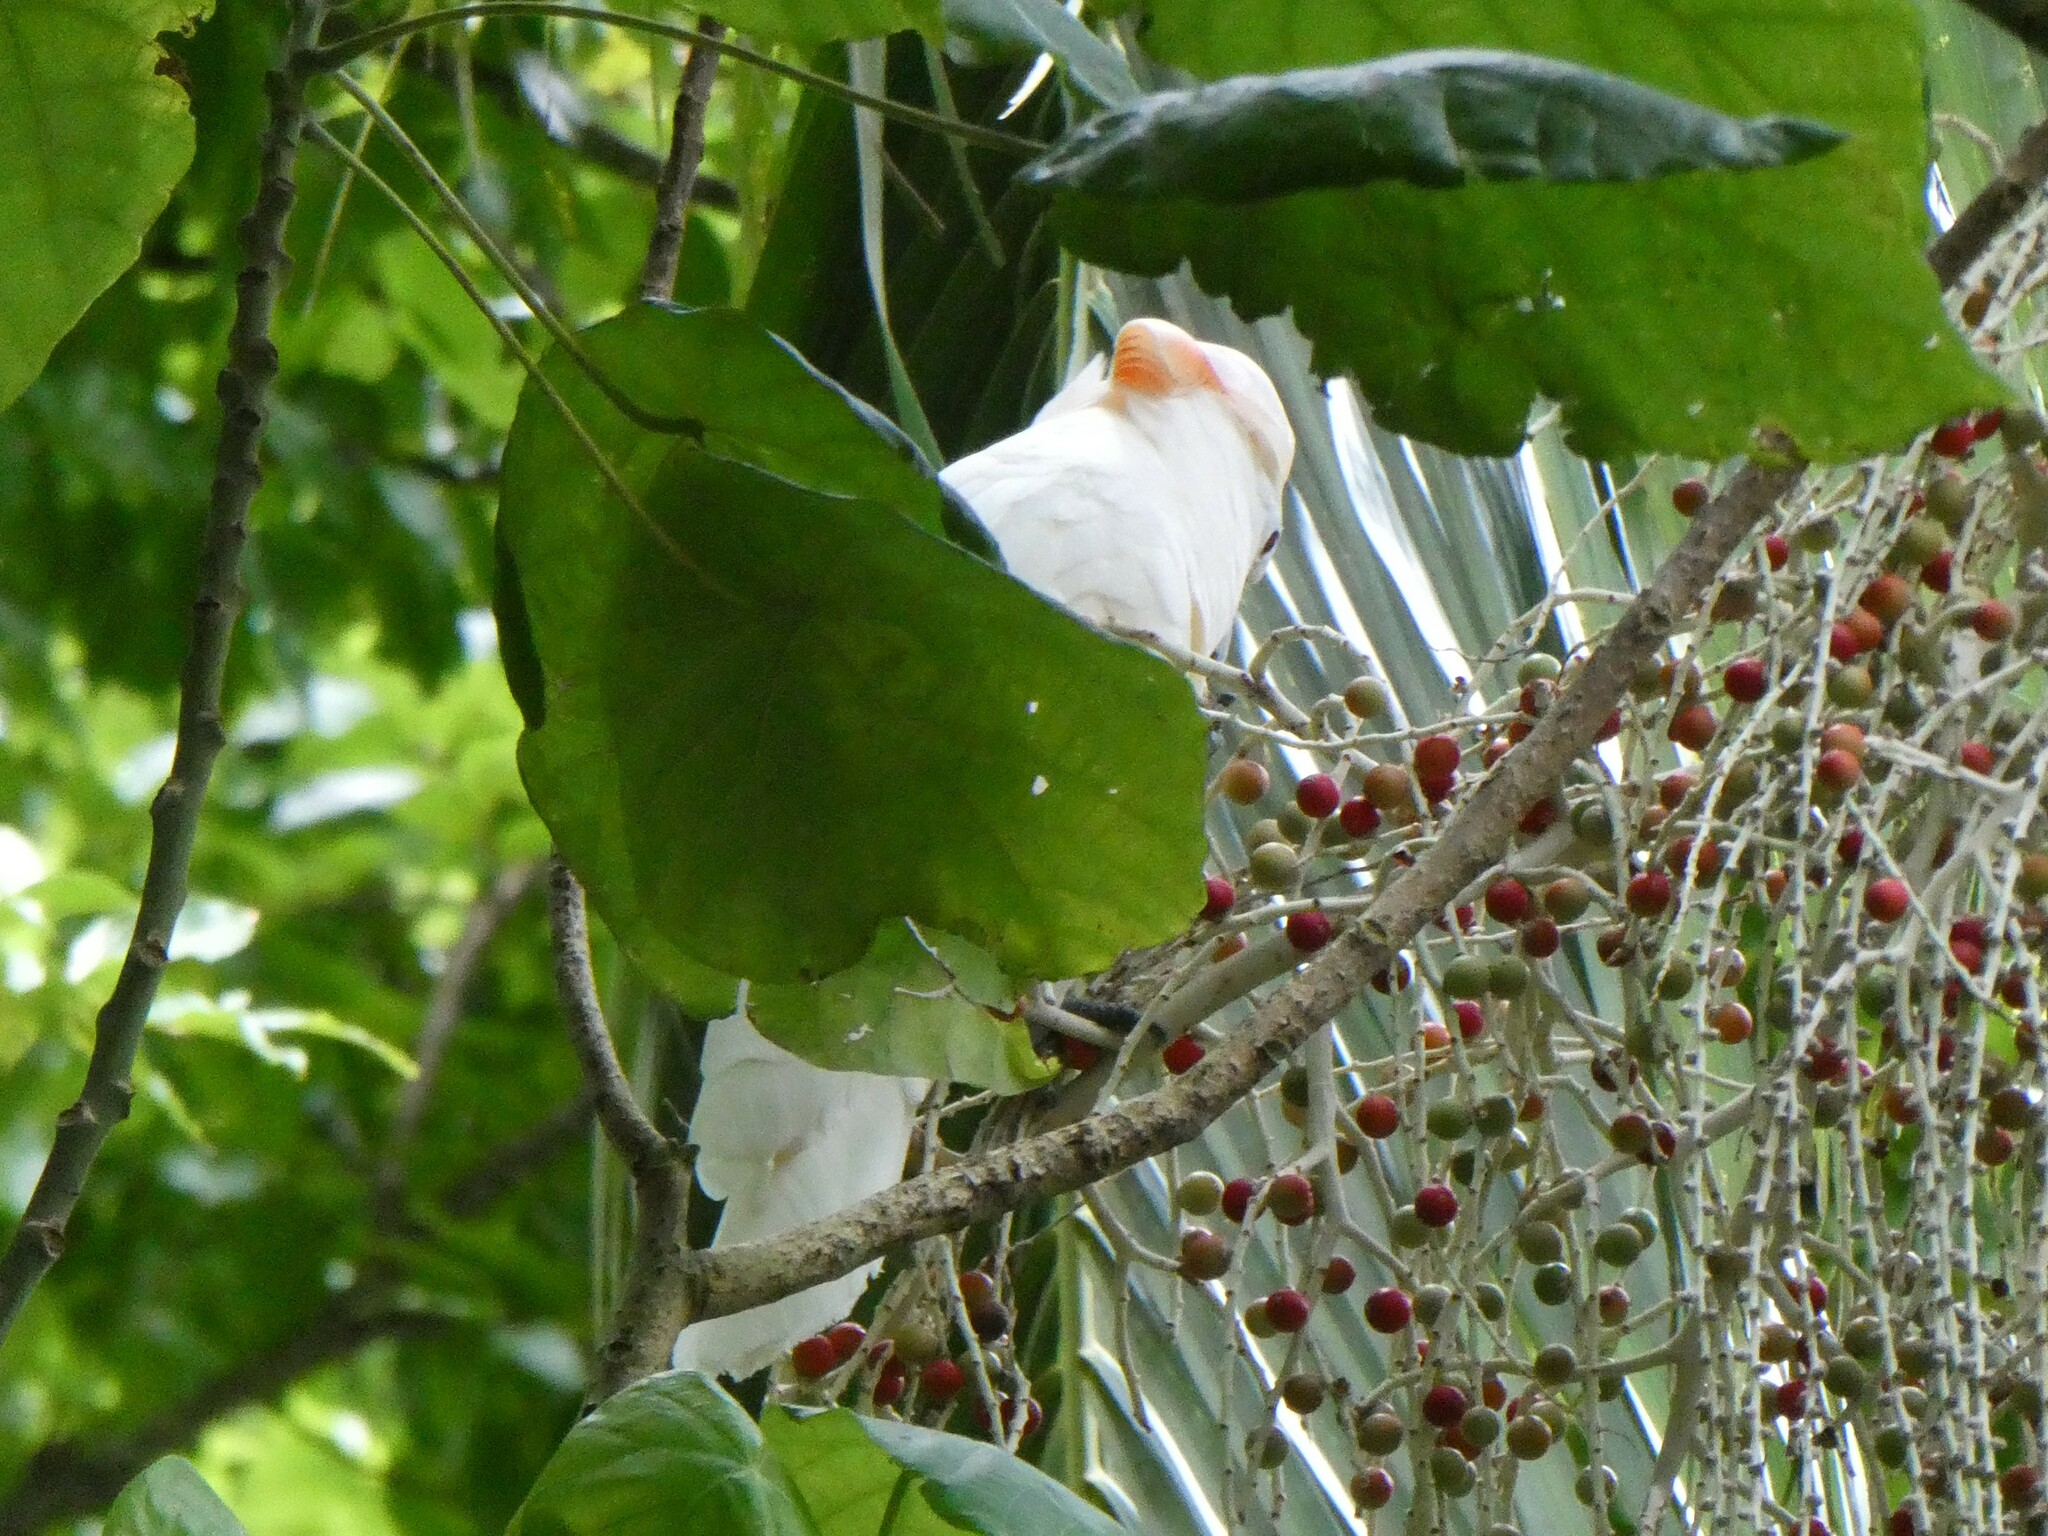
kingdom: Animalia
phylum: Chordata
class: Aves
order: Psittaciformes
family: Psittacidae
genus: Cacatua
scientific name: Cacatua moluccensis
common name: Salmon-crested cockatoo
